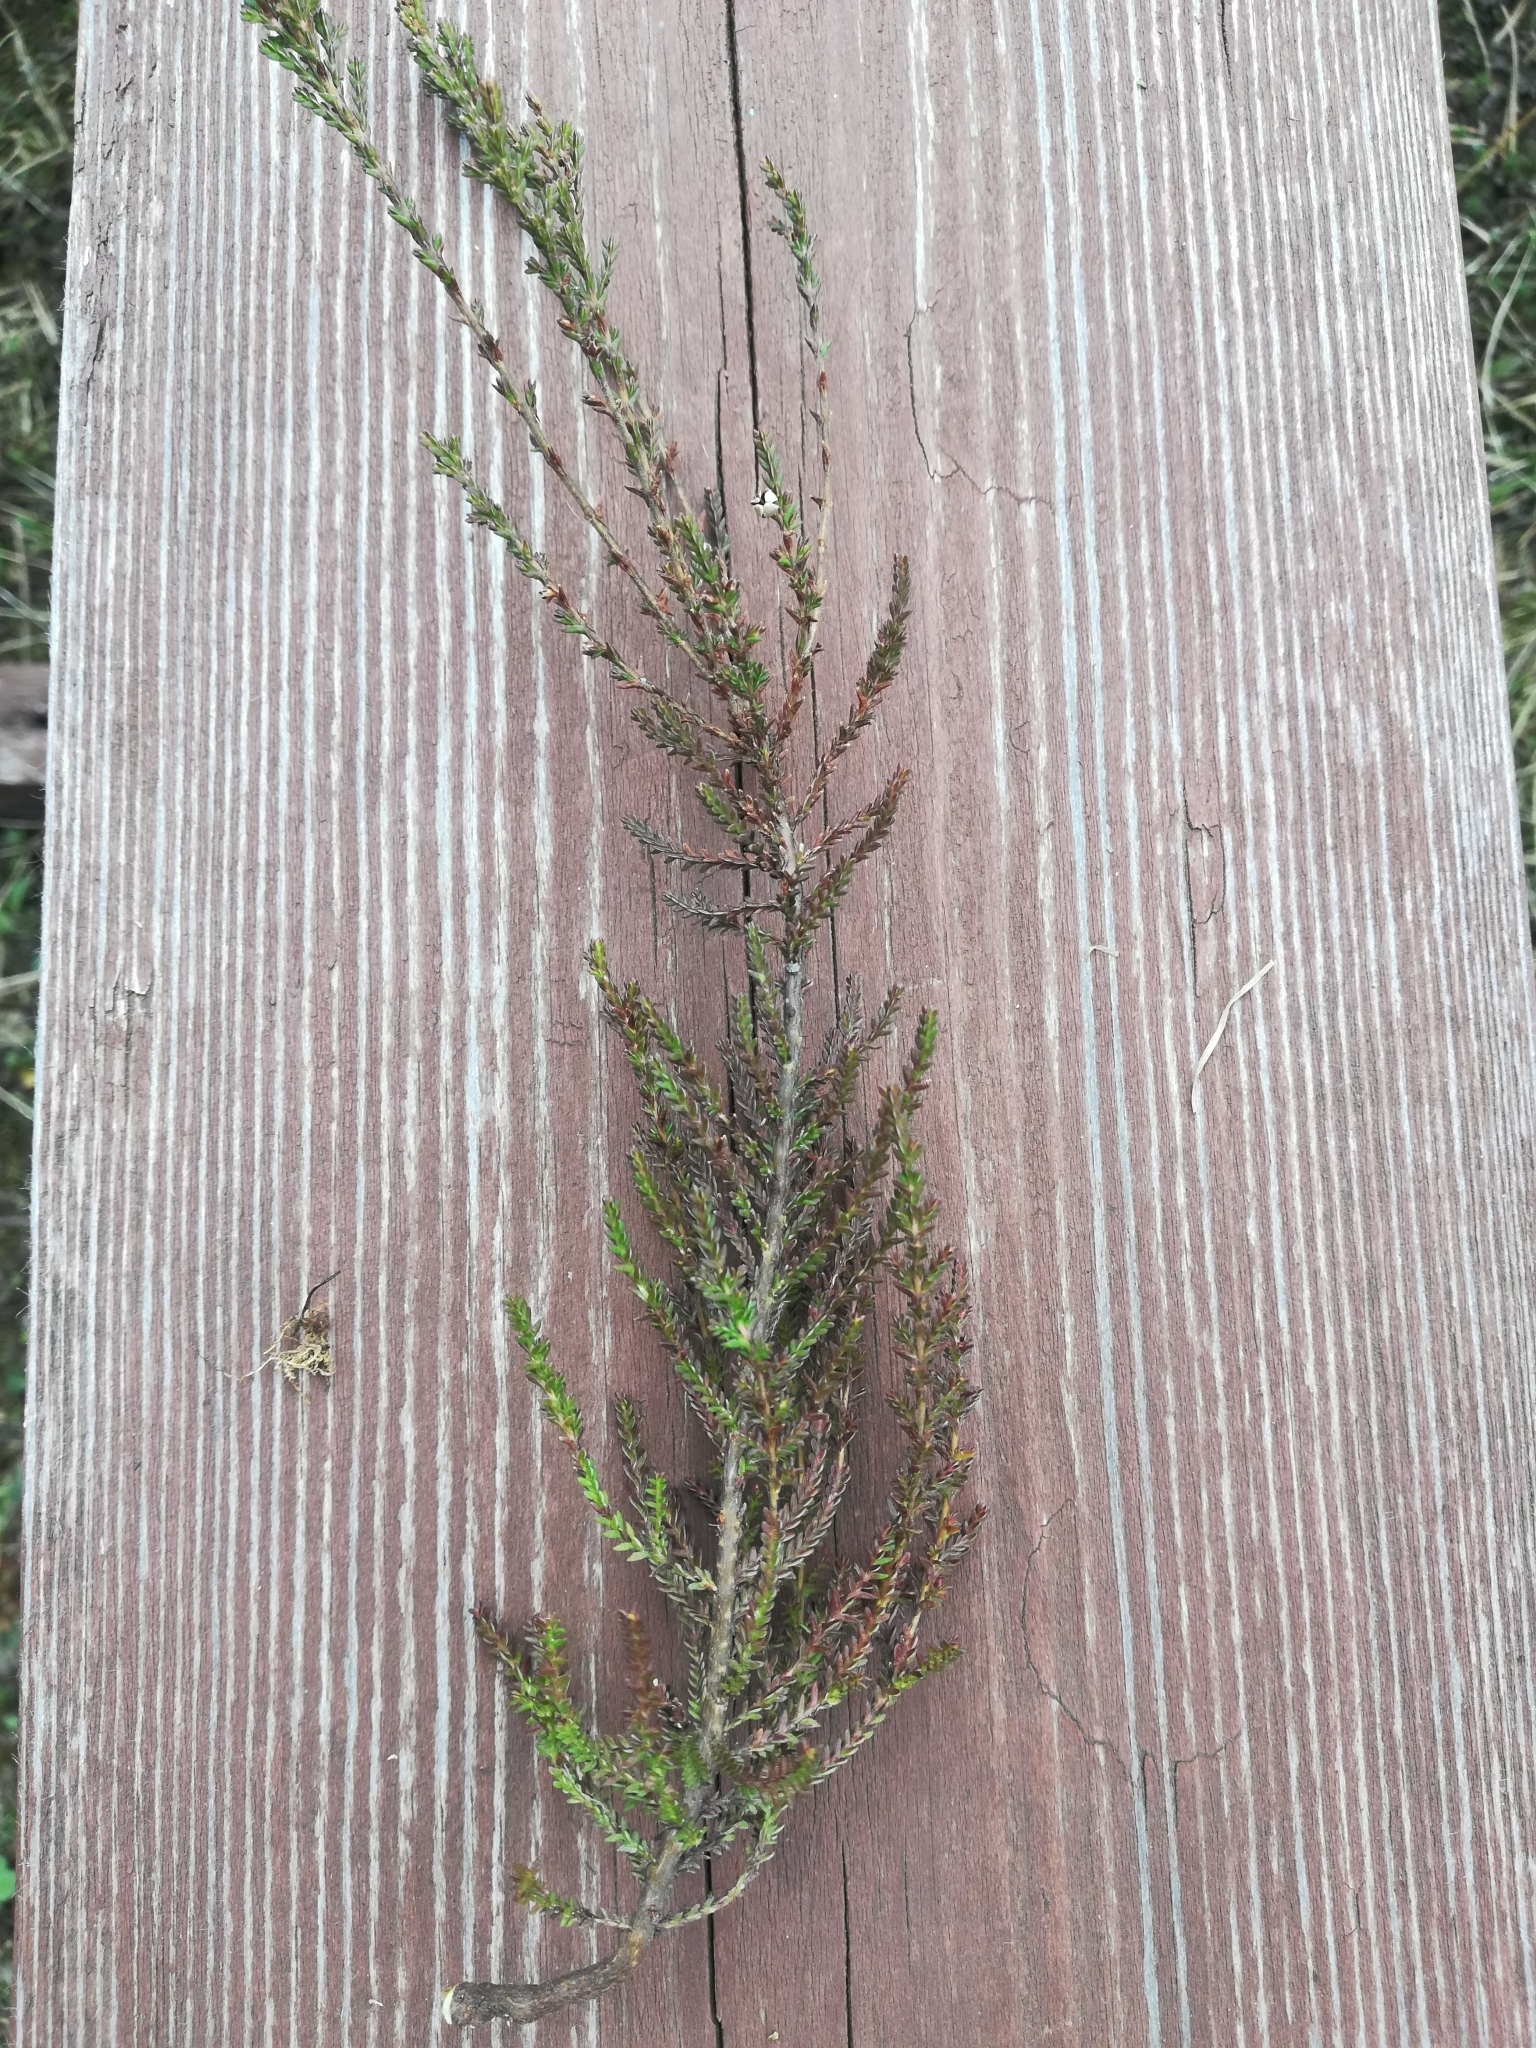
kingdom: Plantae
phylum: Tracheophyta
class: Magnoliopsida
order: Ericales
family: Ericaceae
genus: Calluna
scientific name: Calluna vulgaris
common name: Heather
